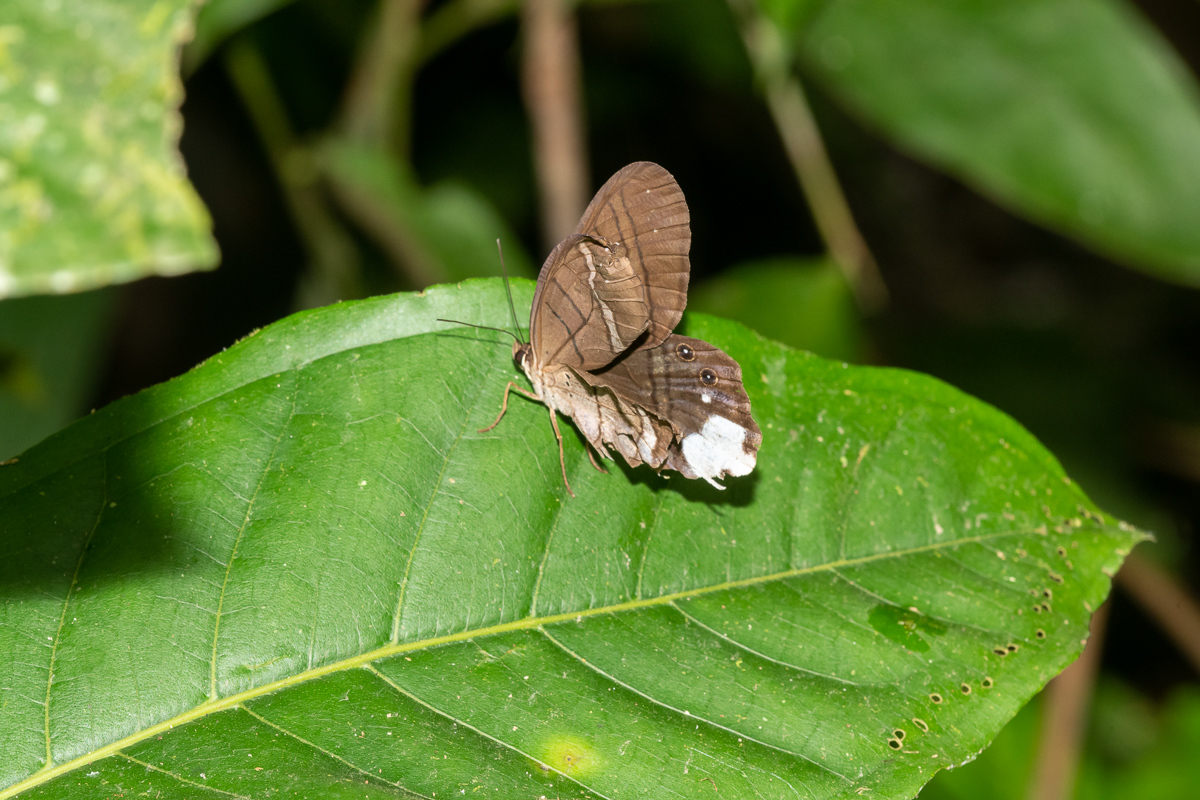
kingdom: Animalia
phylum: Arthropoda
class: Insecta
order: Lepidoptera
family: Nymphalidae
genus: Pierella
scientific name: Pierella astyoche
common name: Astyoche satyr
